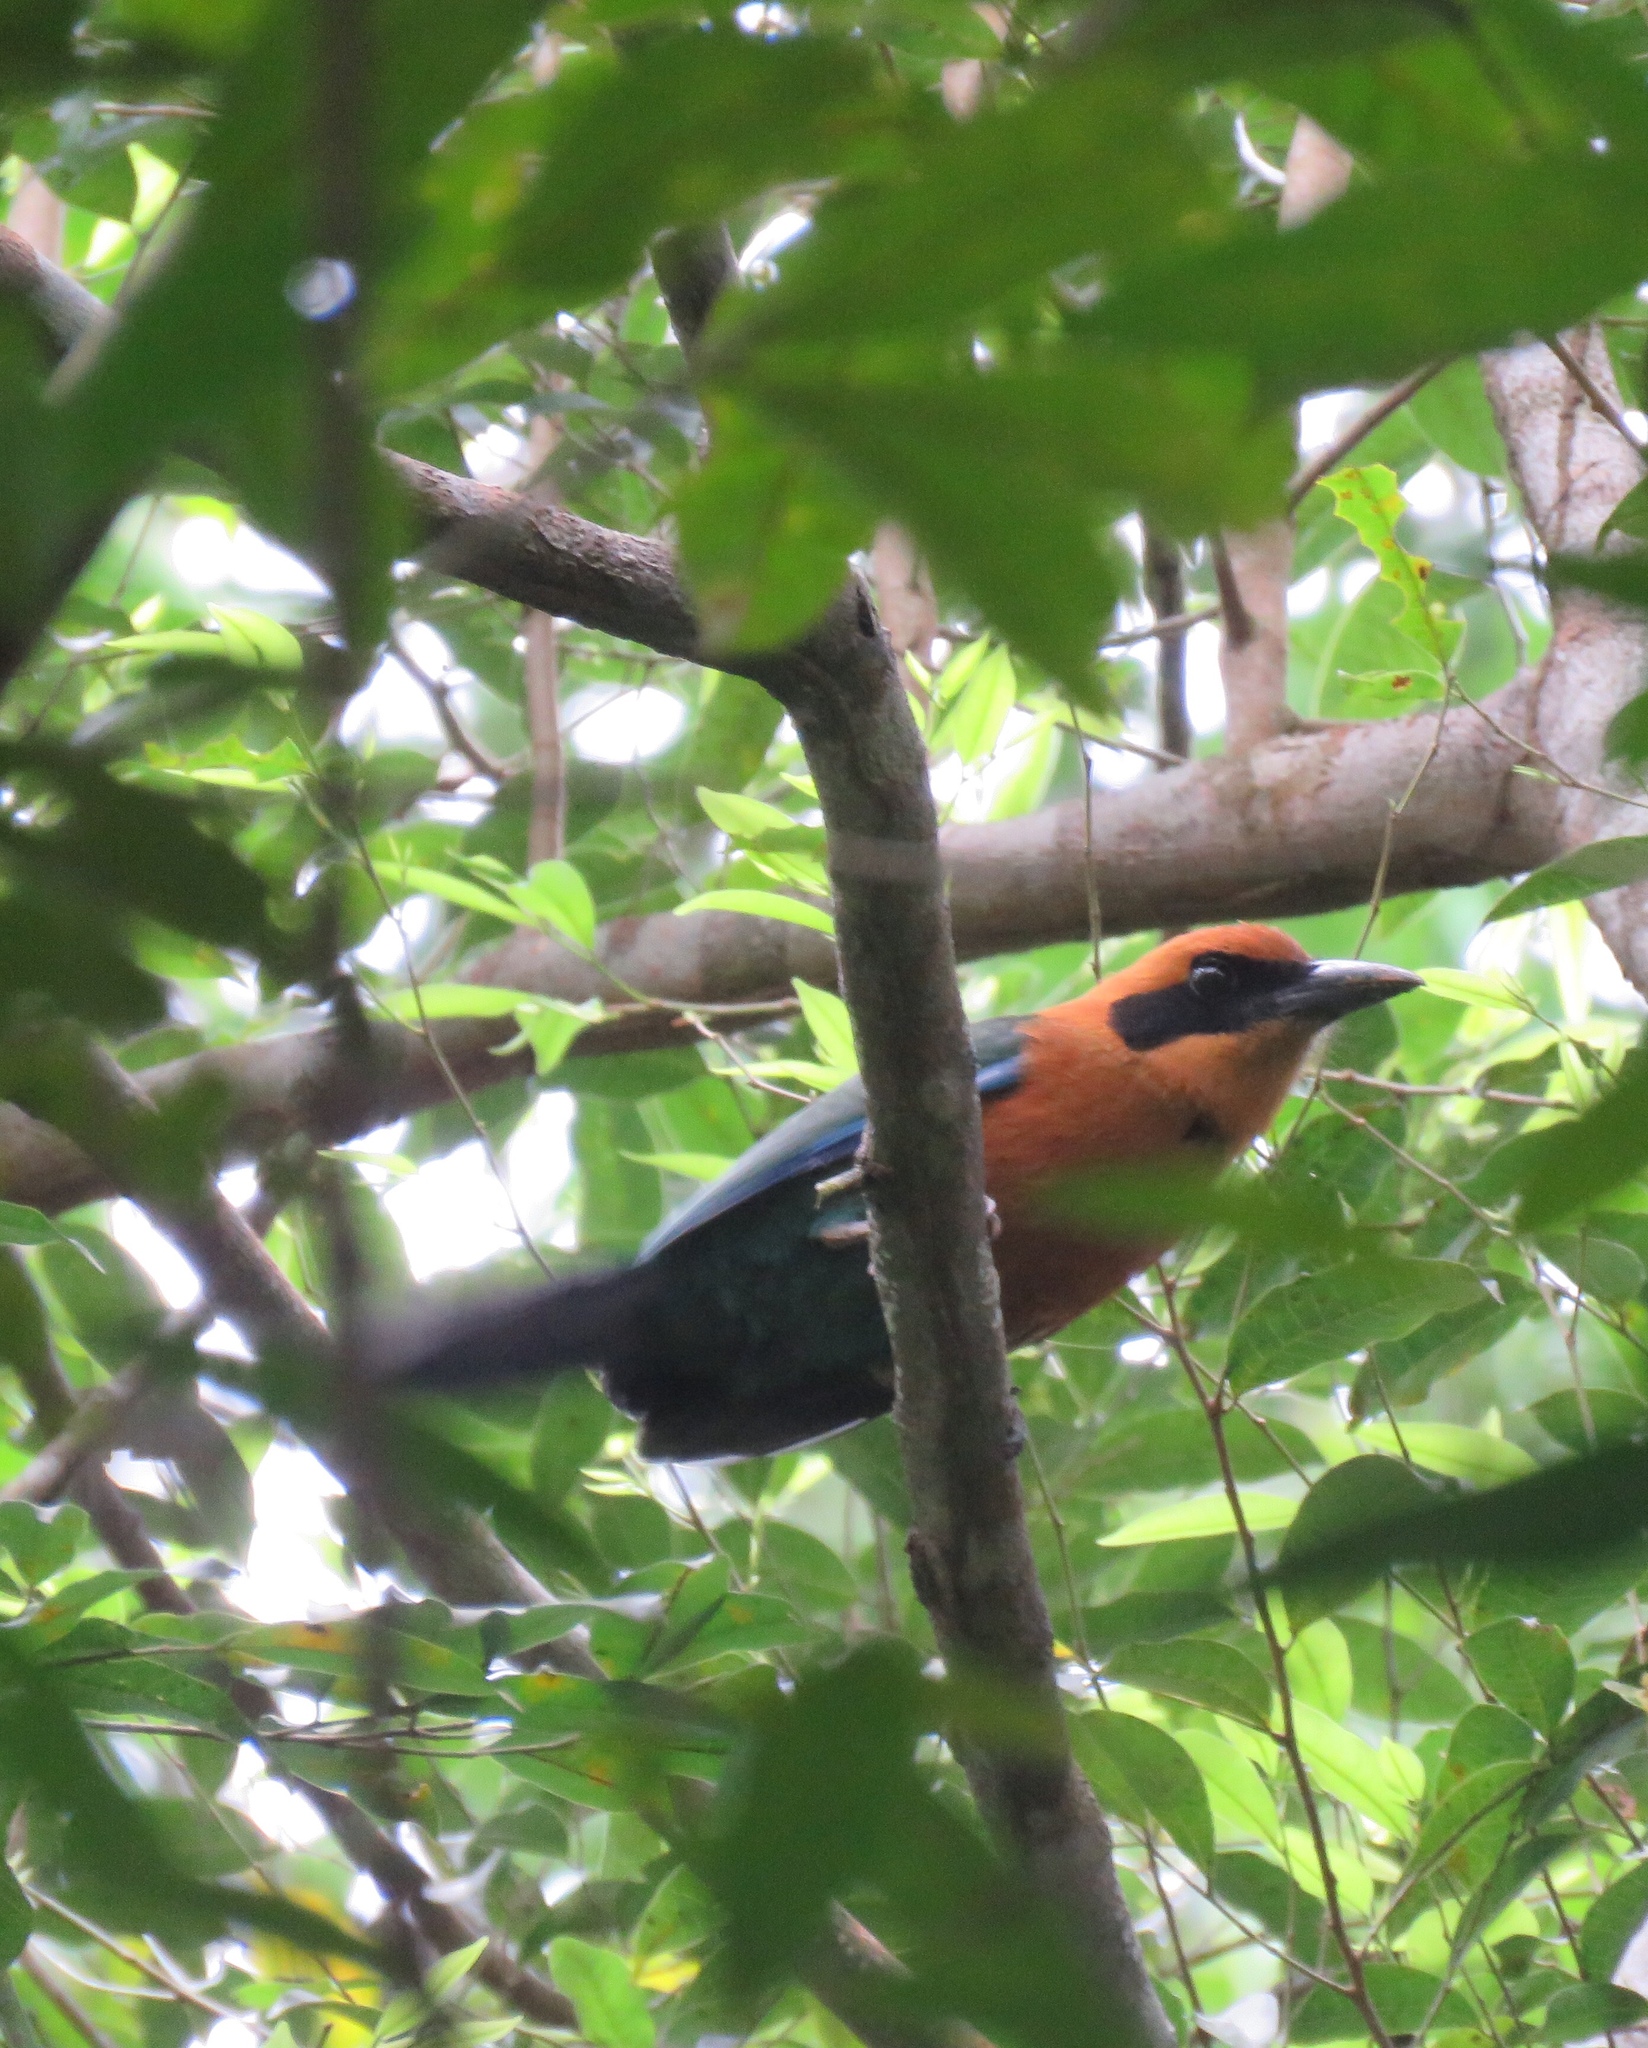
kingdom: Animalia
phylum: Chordata
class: Aves
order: Coraciiformes
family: Momotidae
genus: Baryphthengus
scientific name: Baryphthengus martii
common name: Rufous motmot
